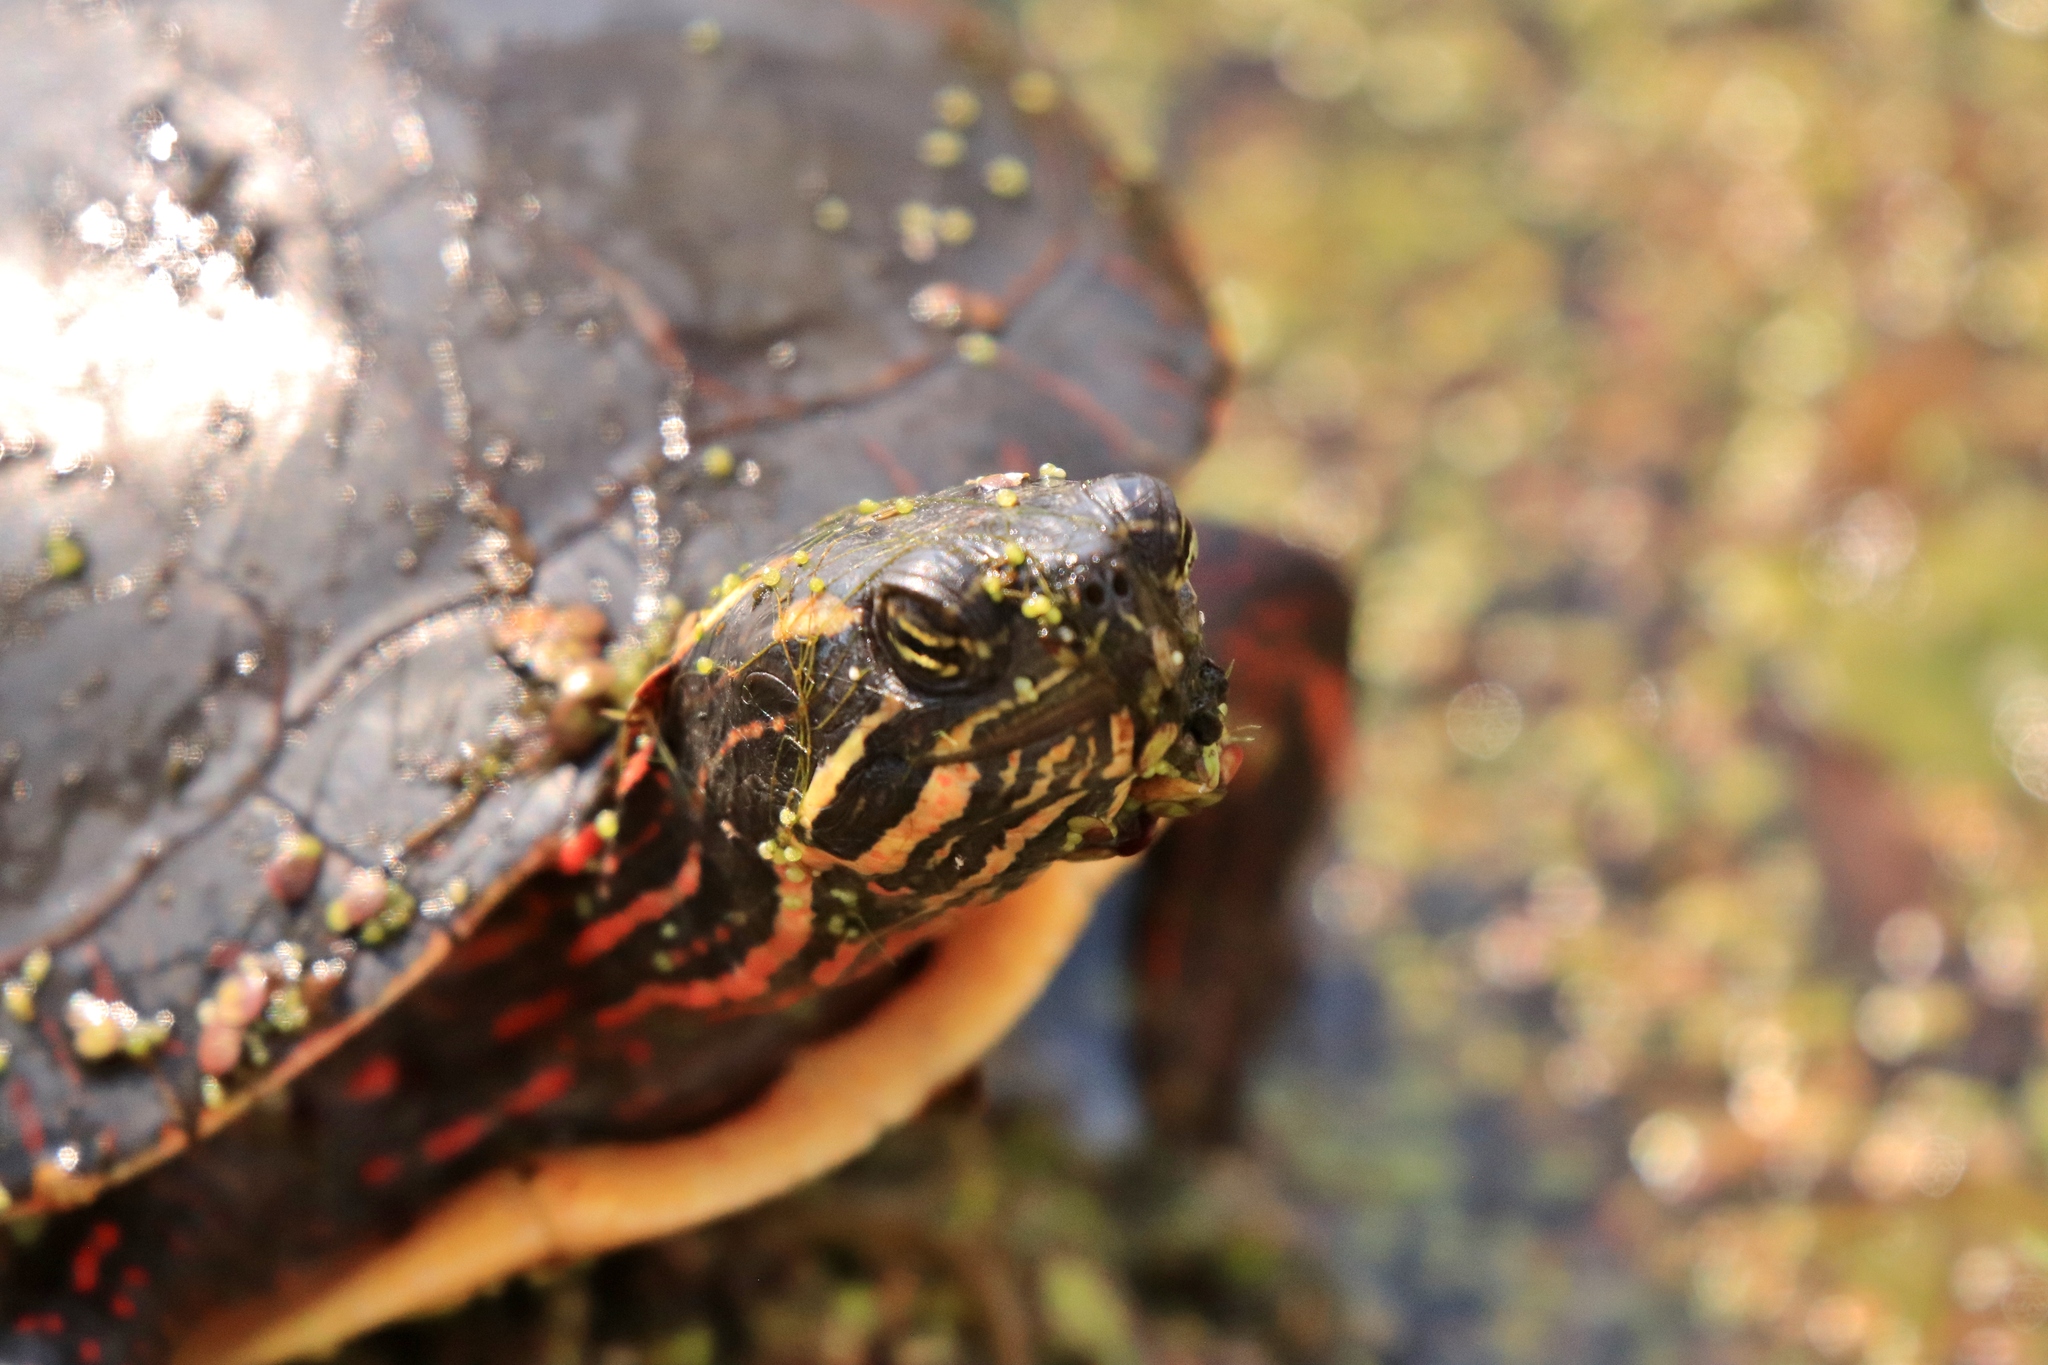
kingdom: Animalia
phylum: Chordata
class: Testudines
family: Emydidae
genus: Chrysemys
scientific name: Chrysemys picta
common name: Painted turtle
